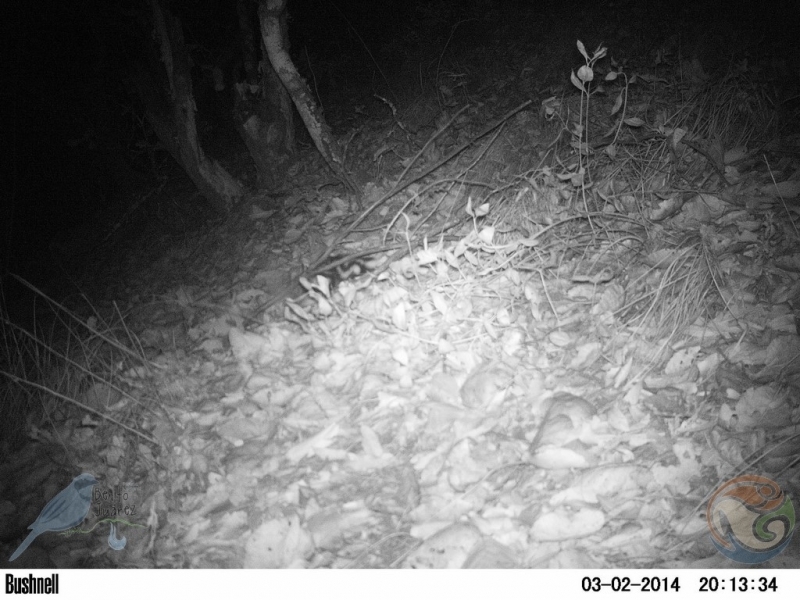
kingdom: Animalia
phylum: Chordata
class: Mammalia
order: Carnivora
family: Mephitidae
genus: Spilogale
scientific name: Spilogale angustifrons
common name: Southern spotted skunk
